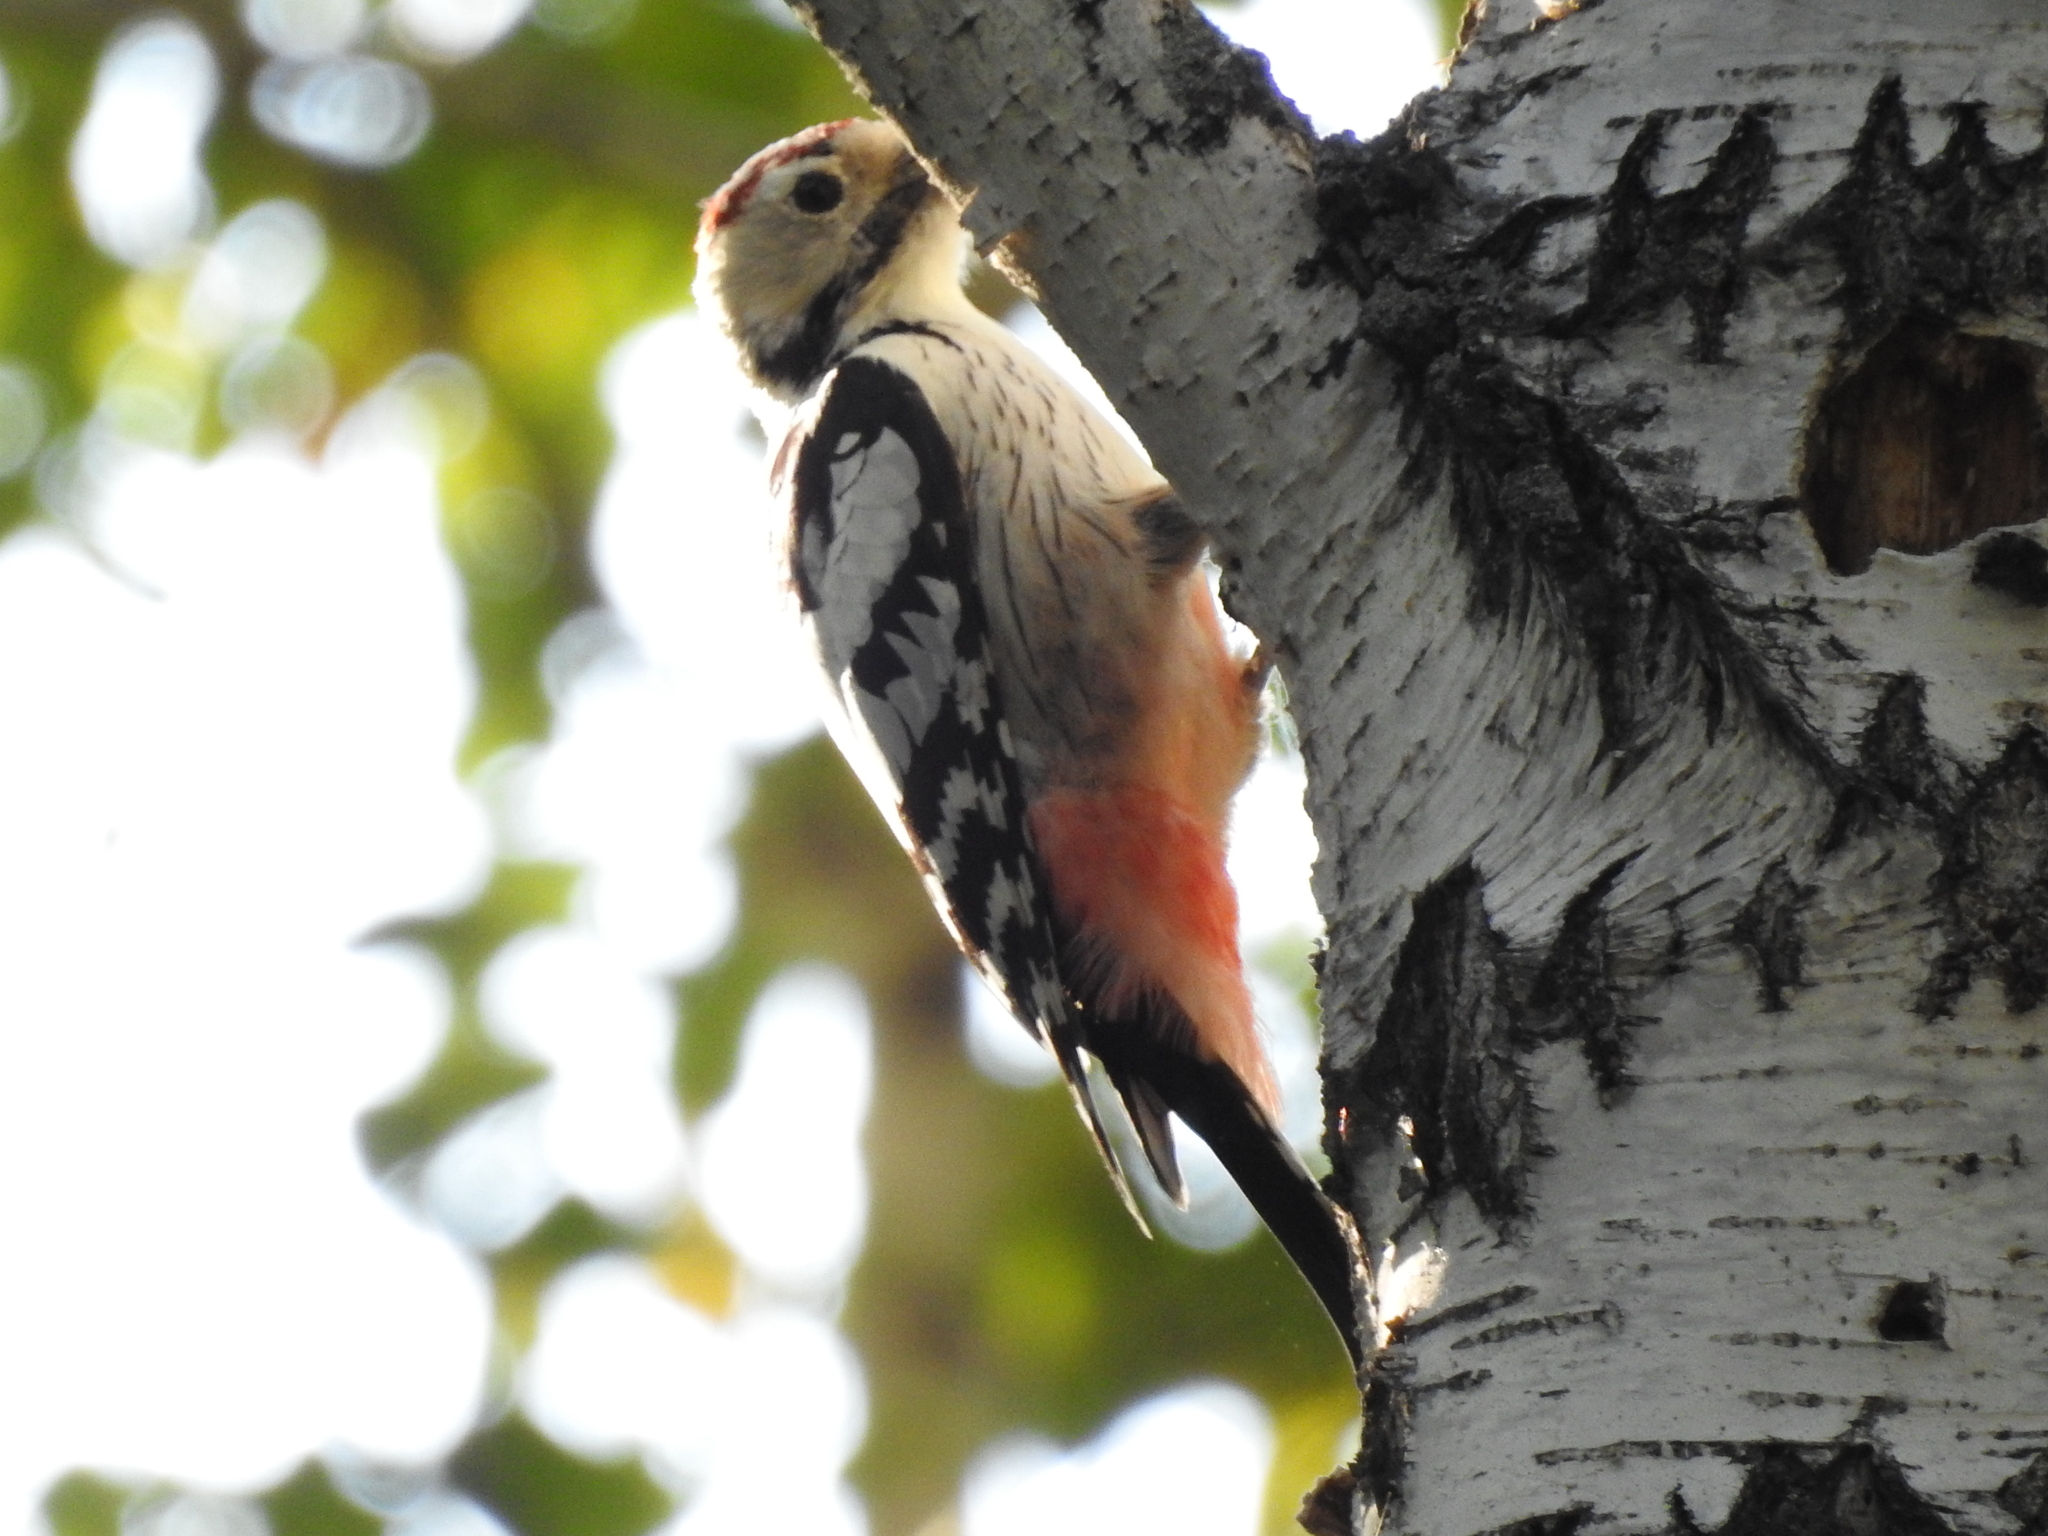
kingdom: Animalia
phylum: Chordata
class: Aves
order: Piciformes
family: Picidae
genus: Dendrocopos
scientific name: Dendrocopos leucotos
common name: White-backed woodpecker
